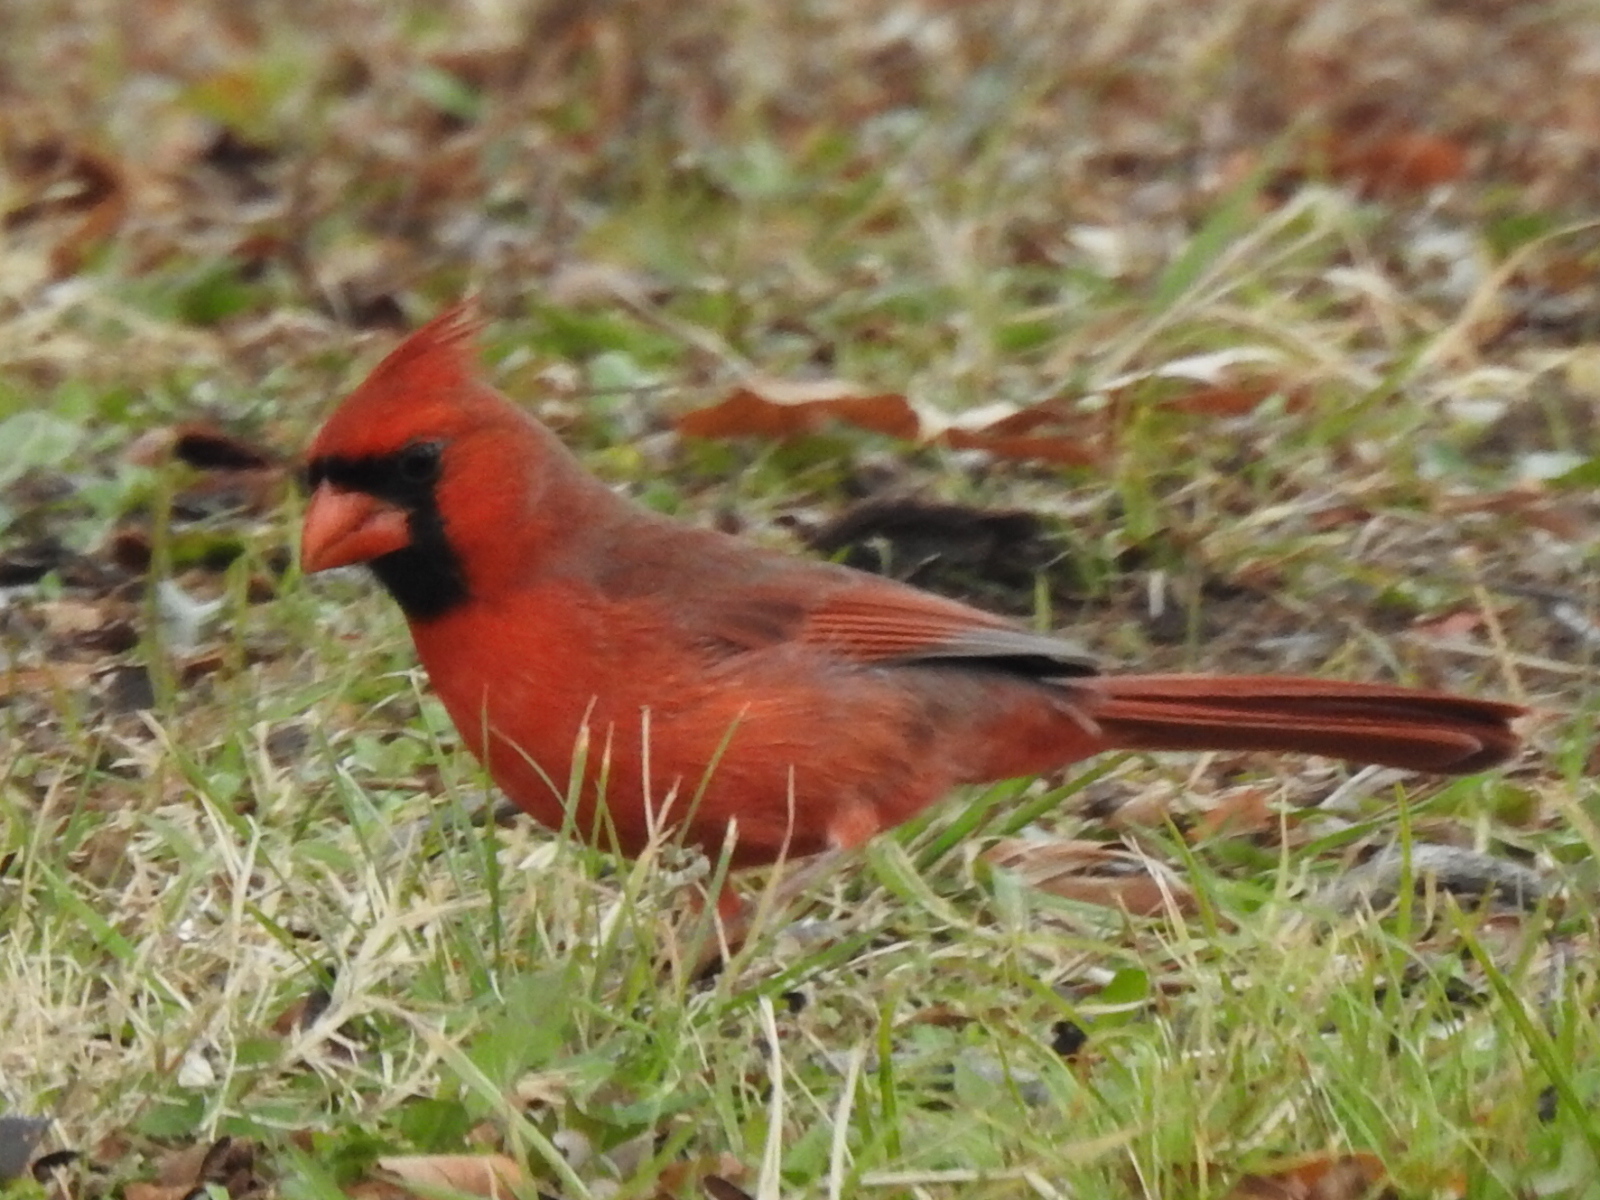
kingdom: Animalia
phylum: Chordata
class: Aves
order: Passeriformes
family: Cardinalidae
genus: Cardinalis
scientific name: Cardinalis cardinalis
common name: Northern cardinal
